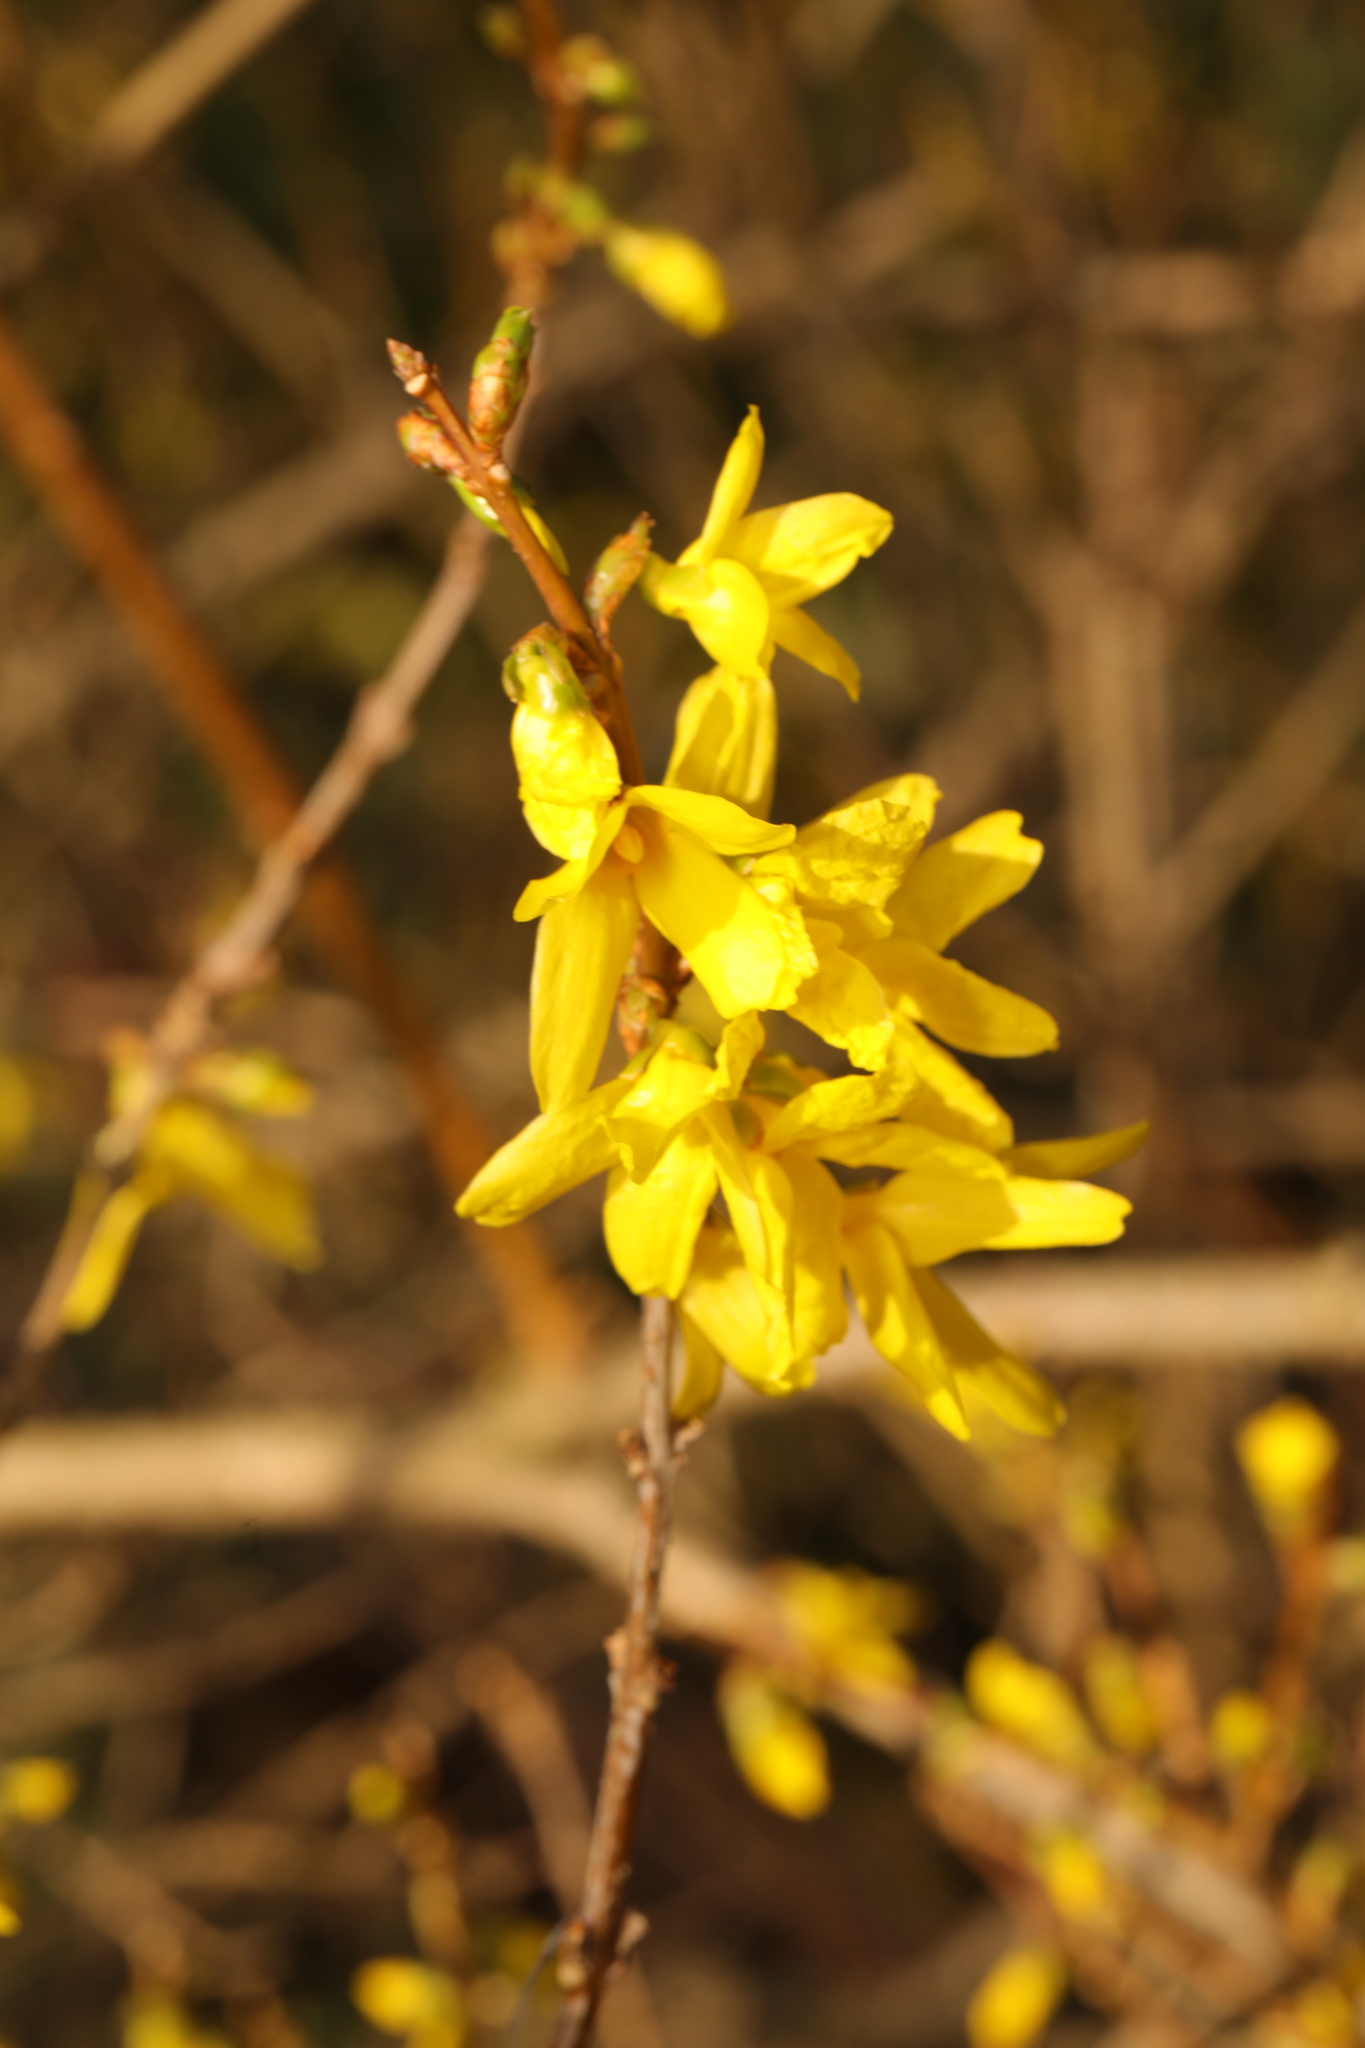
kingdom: Plantae
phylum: Tracheophyta
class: Magnoliopsida
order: Lamiales
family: Oleaceae
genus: Forsythia
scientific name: Forsythia intermedia
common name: Forsythia
